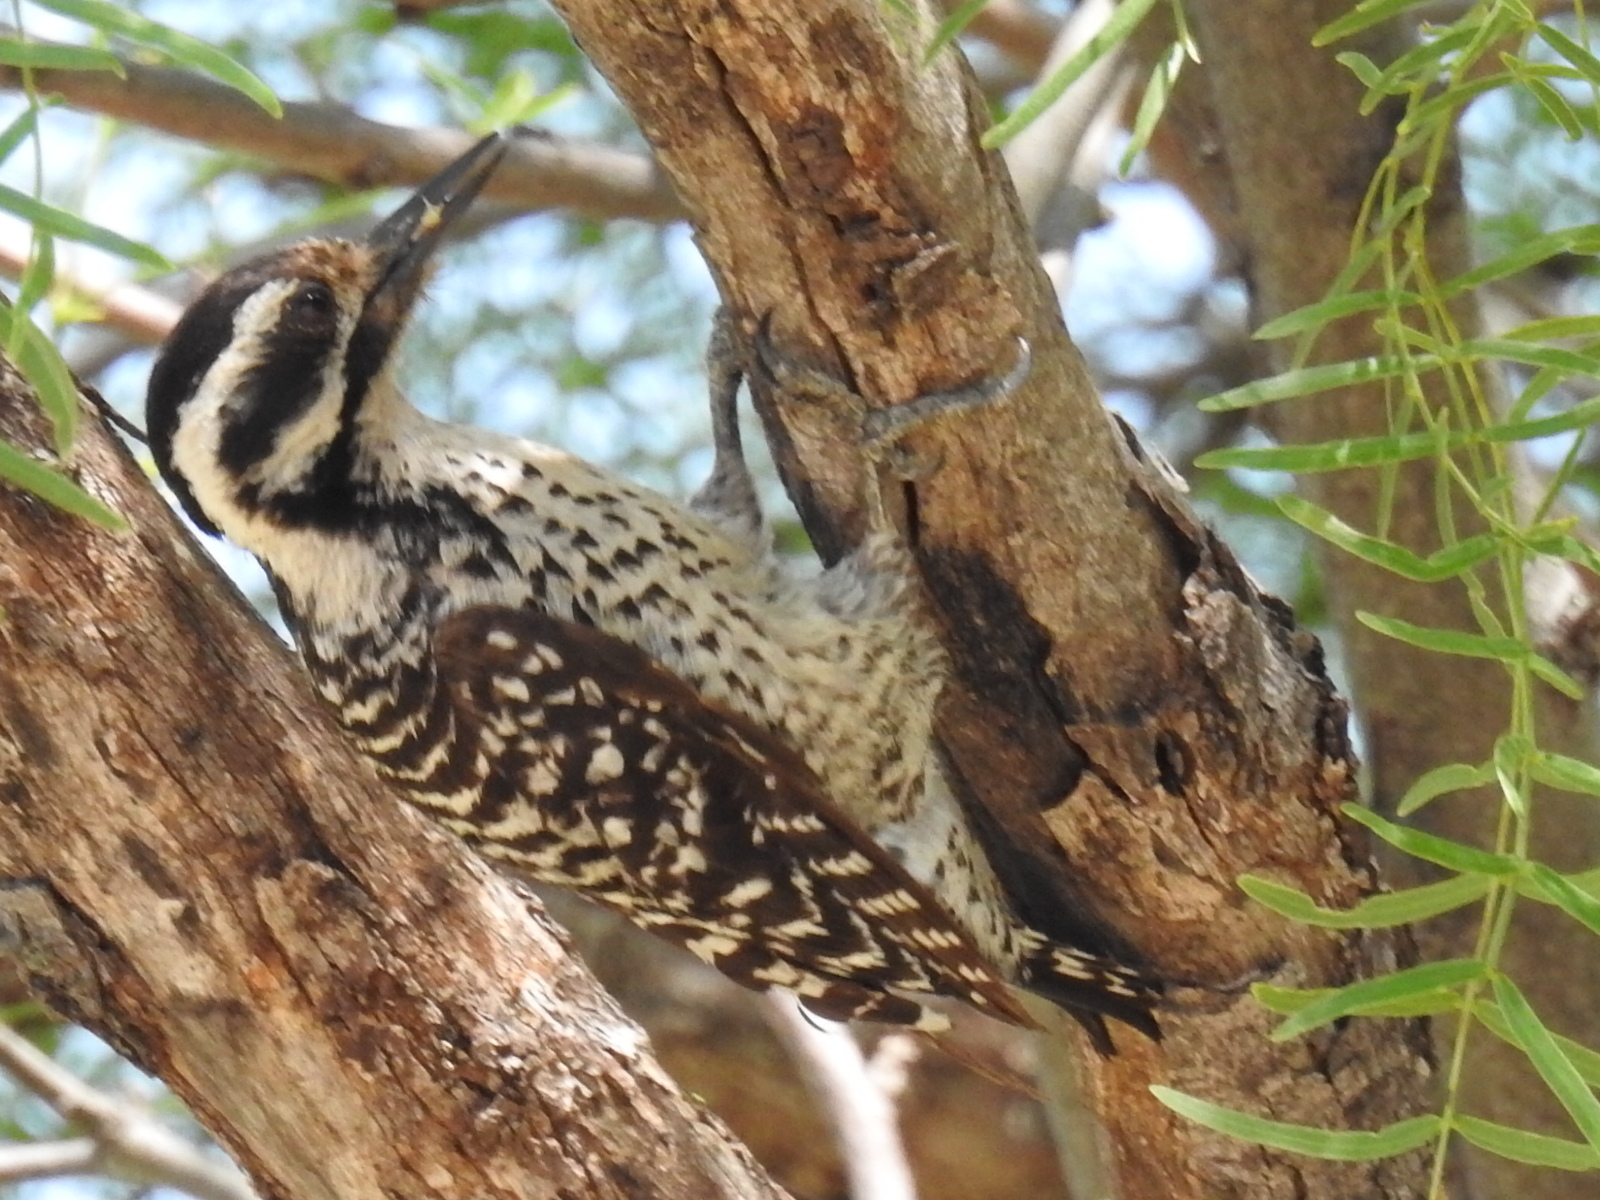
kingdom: Animalia
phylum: Chordata
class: Aves
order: Piciformes
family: Picidae
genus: Dryobates
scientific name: Dryobates scalaris
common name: Ladder-backed woodpecker
